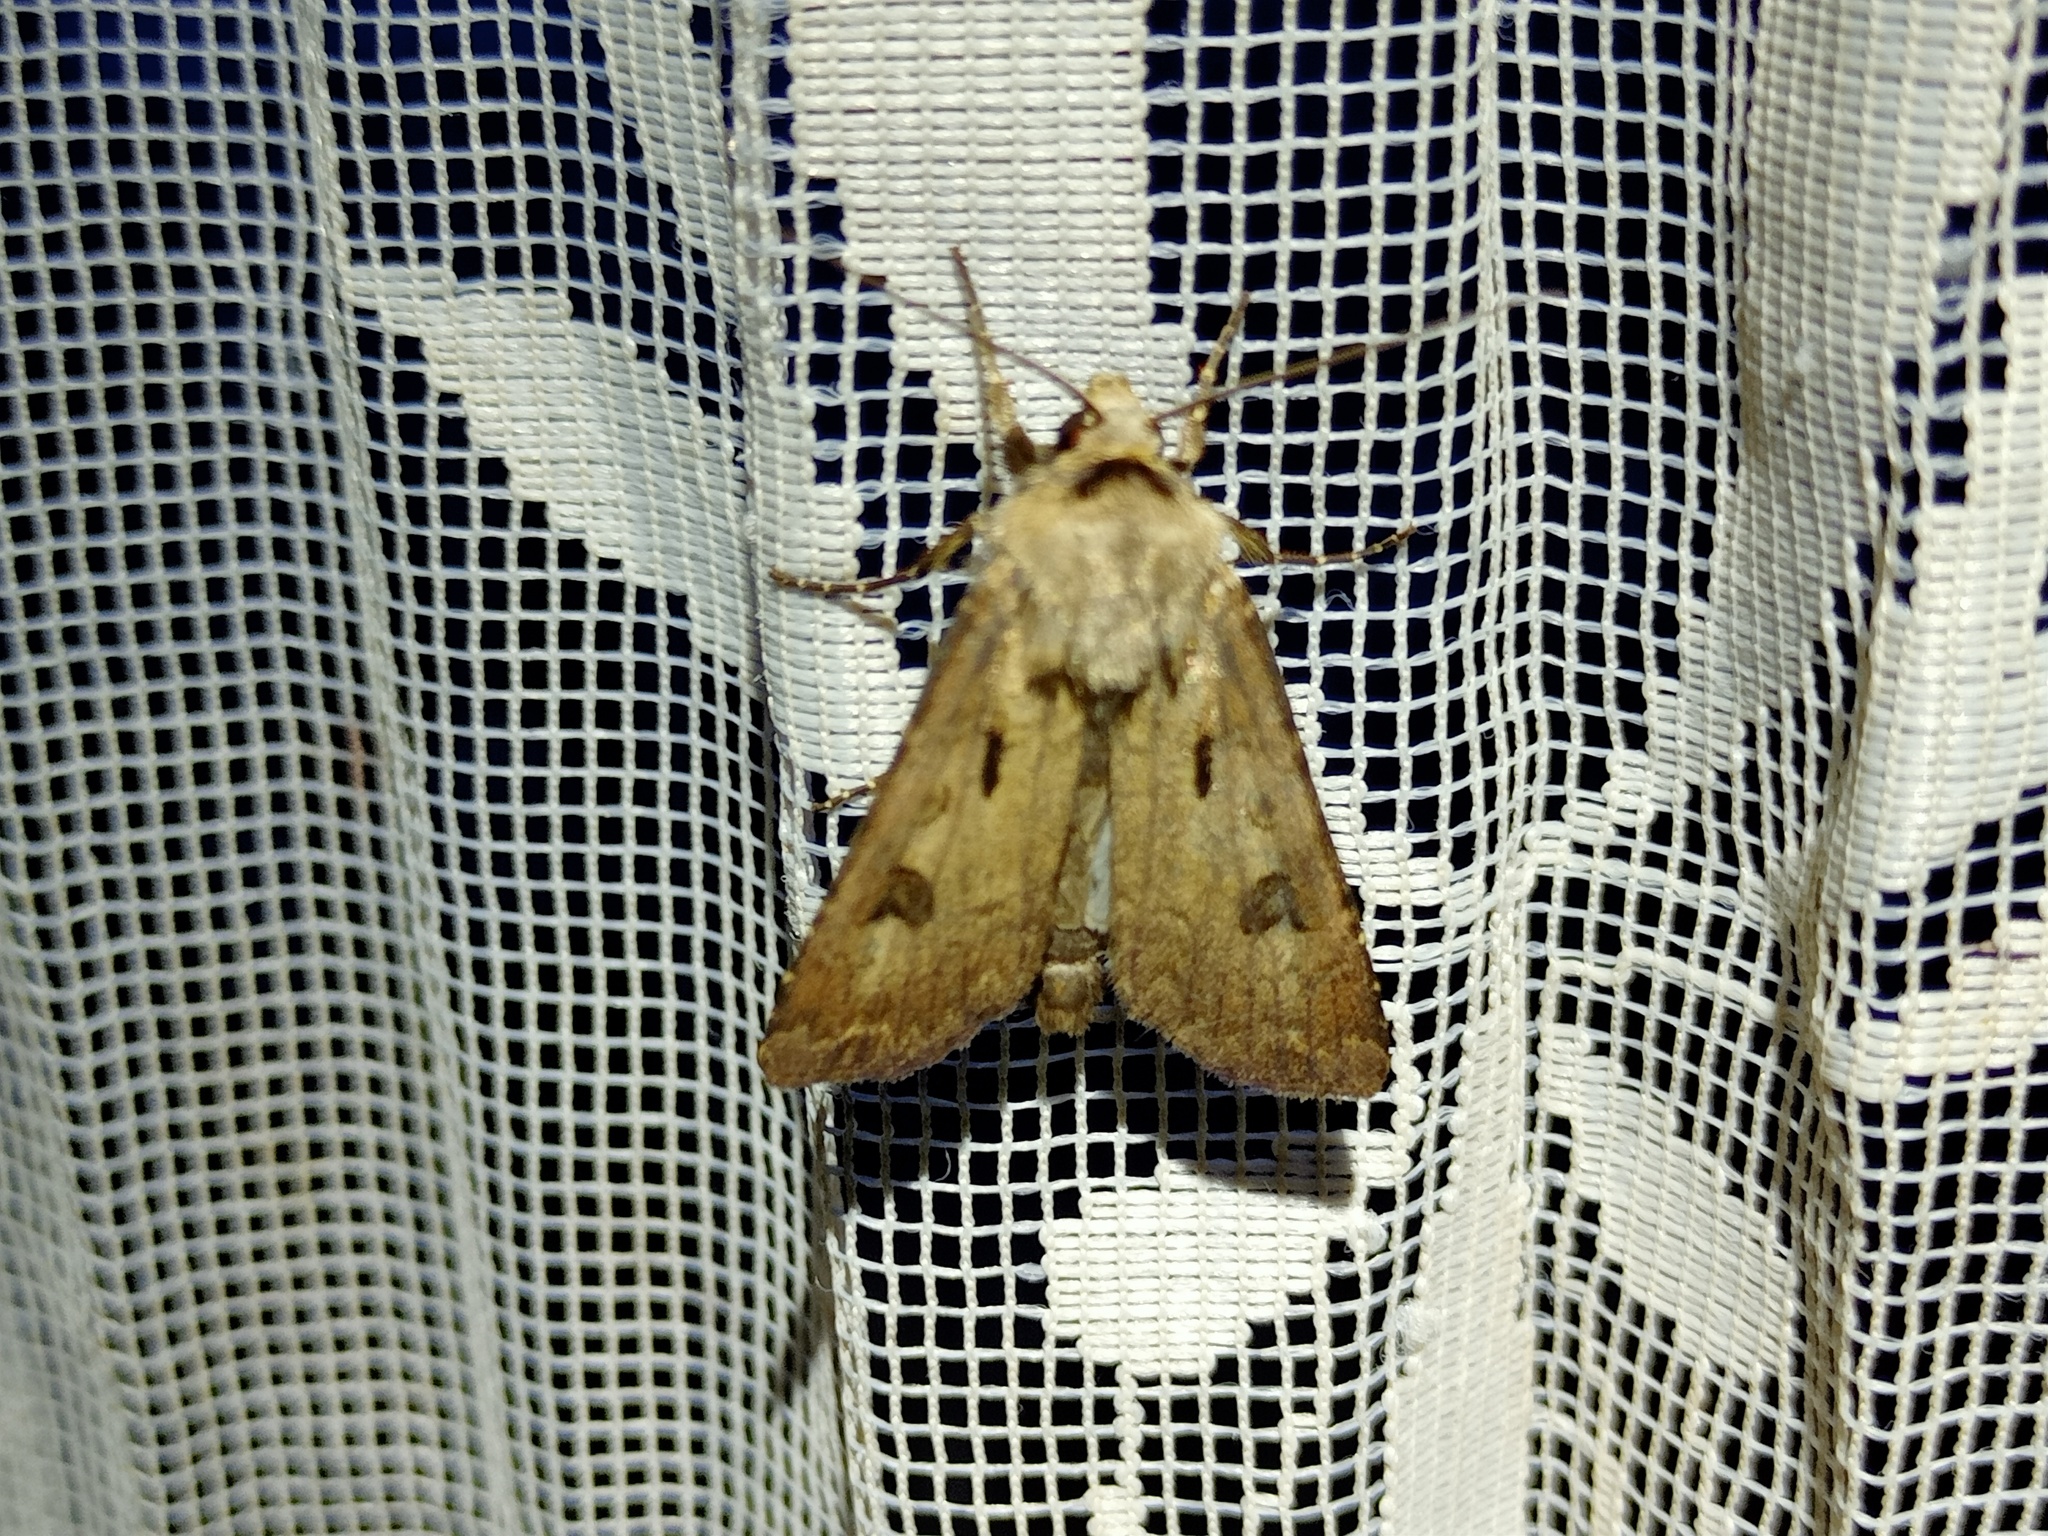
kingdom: Animalia
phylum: Arthropoda
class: Insecta
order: Lepidoptera
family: Noctuidae
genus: Agrotis
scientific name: Agrotis exclamationis
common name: Heart and dart
